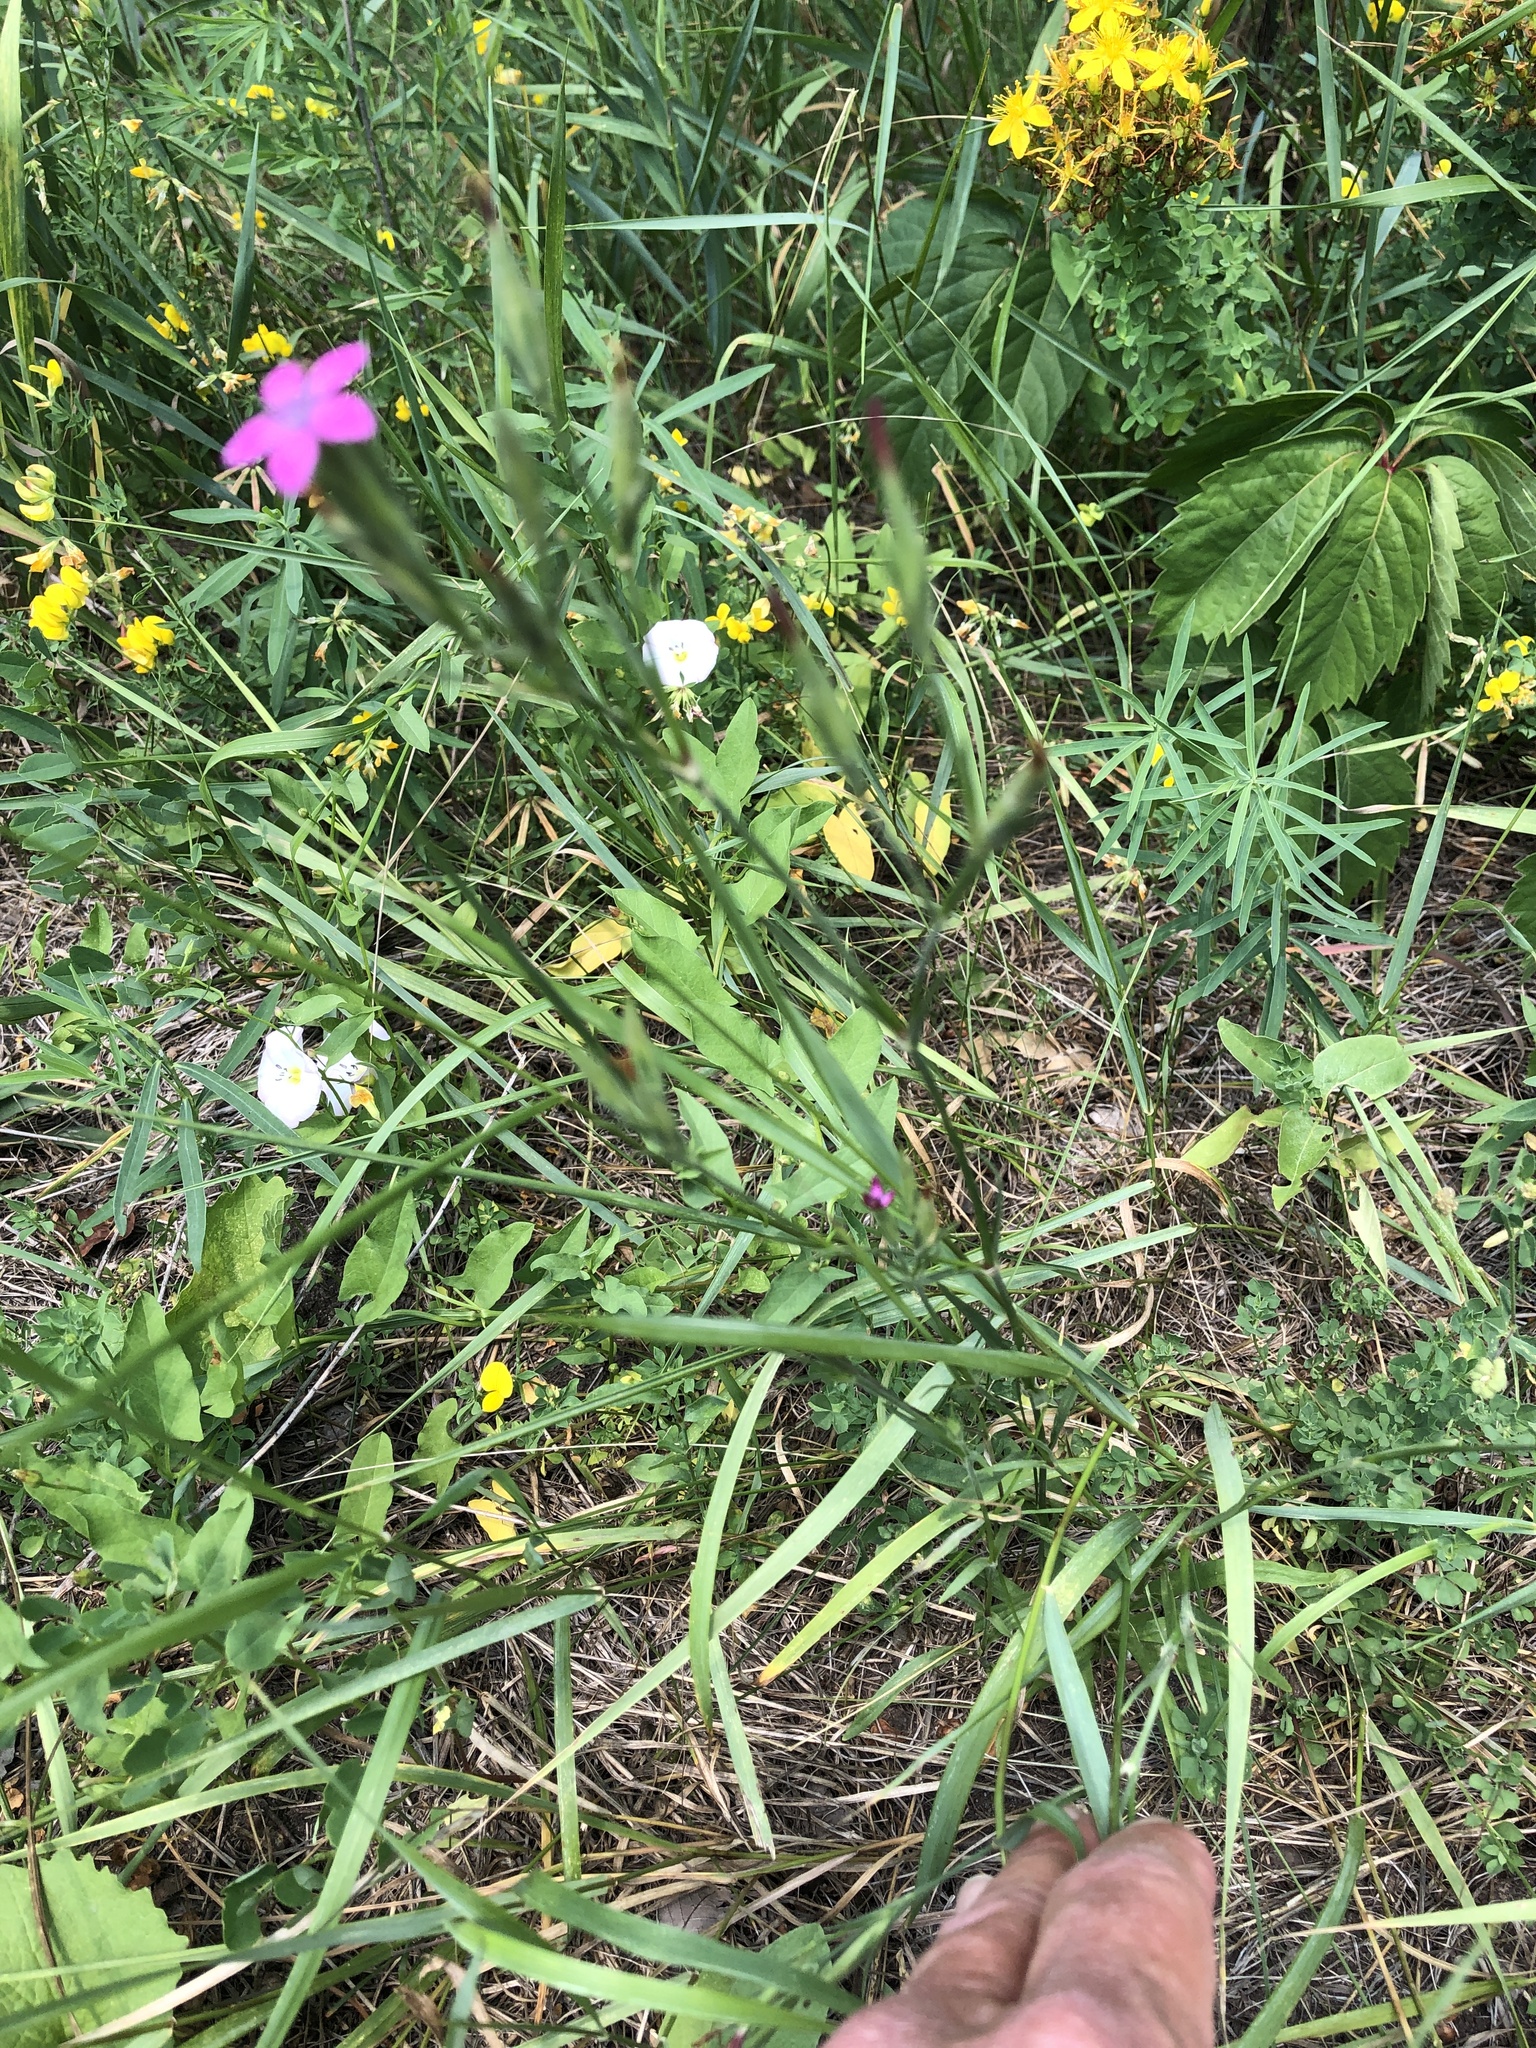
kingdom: Plantae
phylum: Tracheophyta
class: Magnoliopsida
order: Caryophyllales
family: Caryophyllaceae
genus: Dianthus
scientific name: Dianthus armeria
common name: Deptford pink
